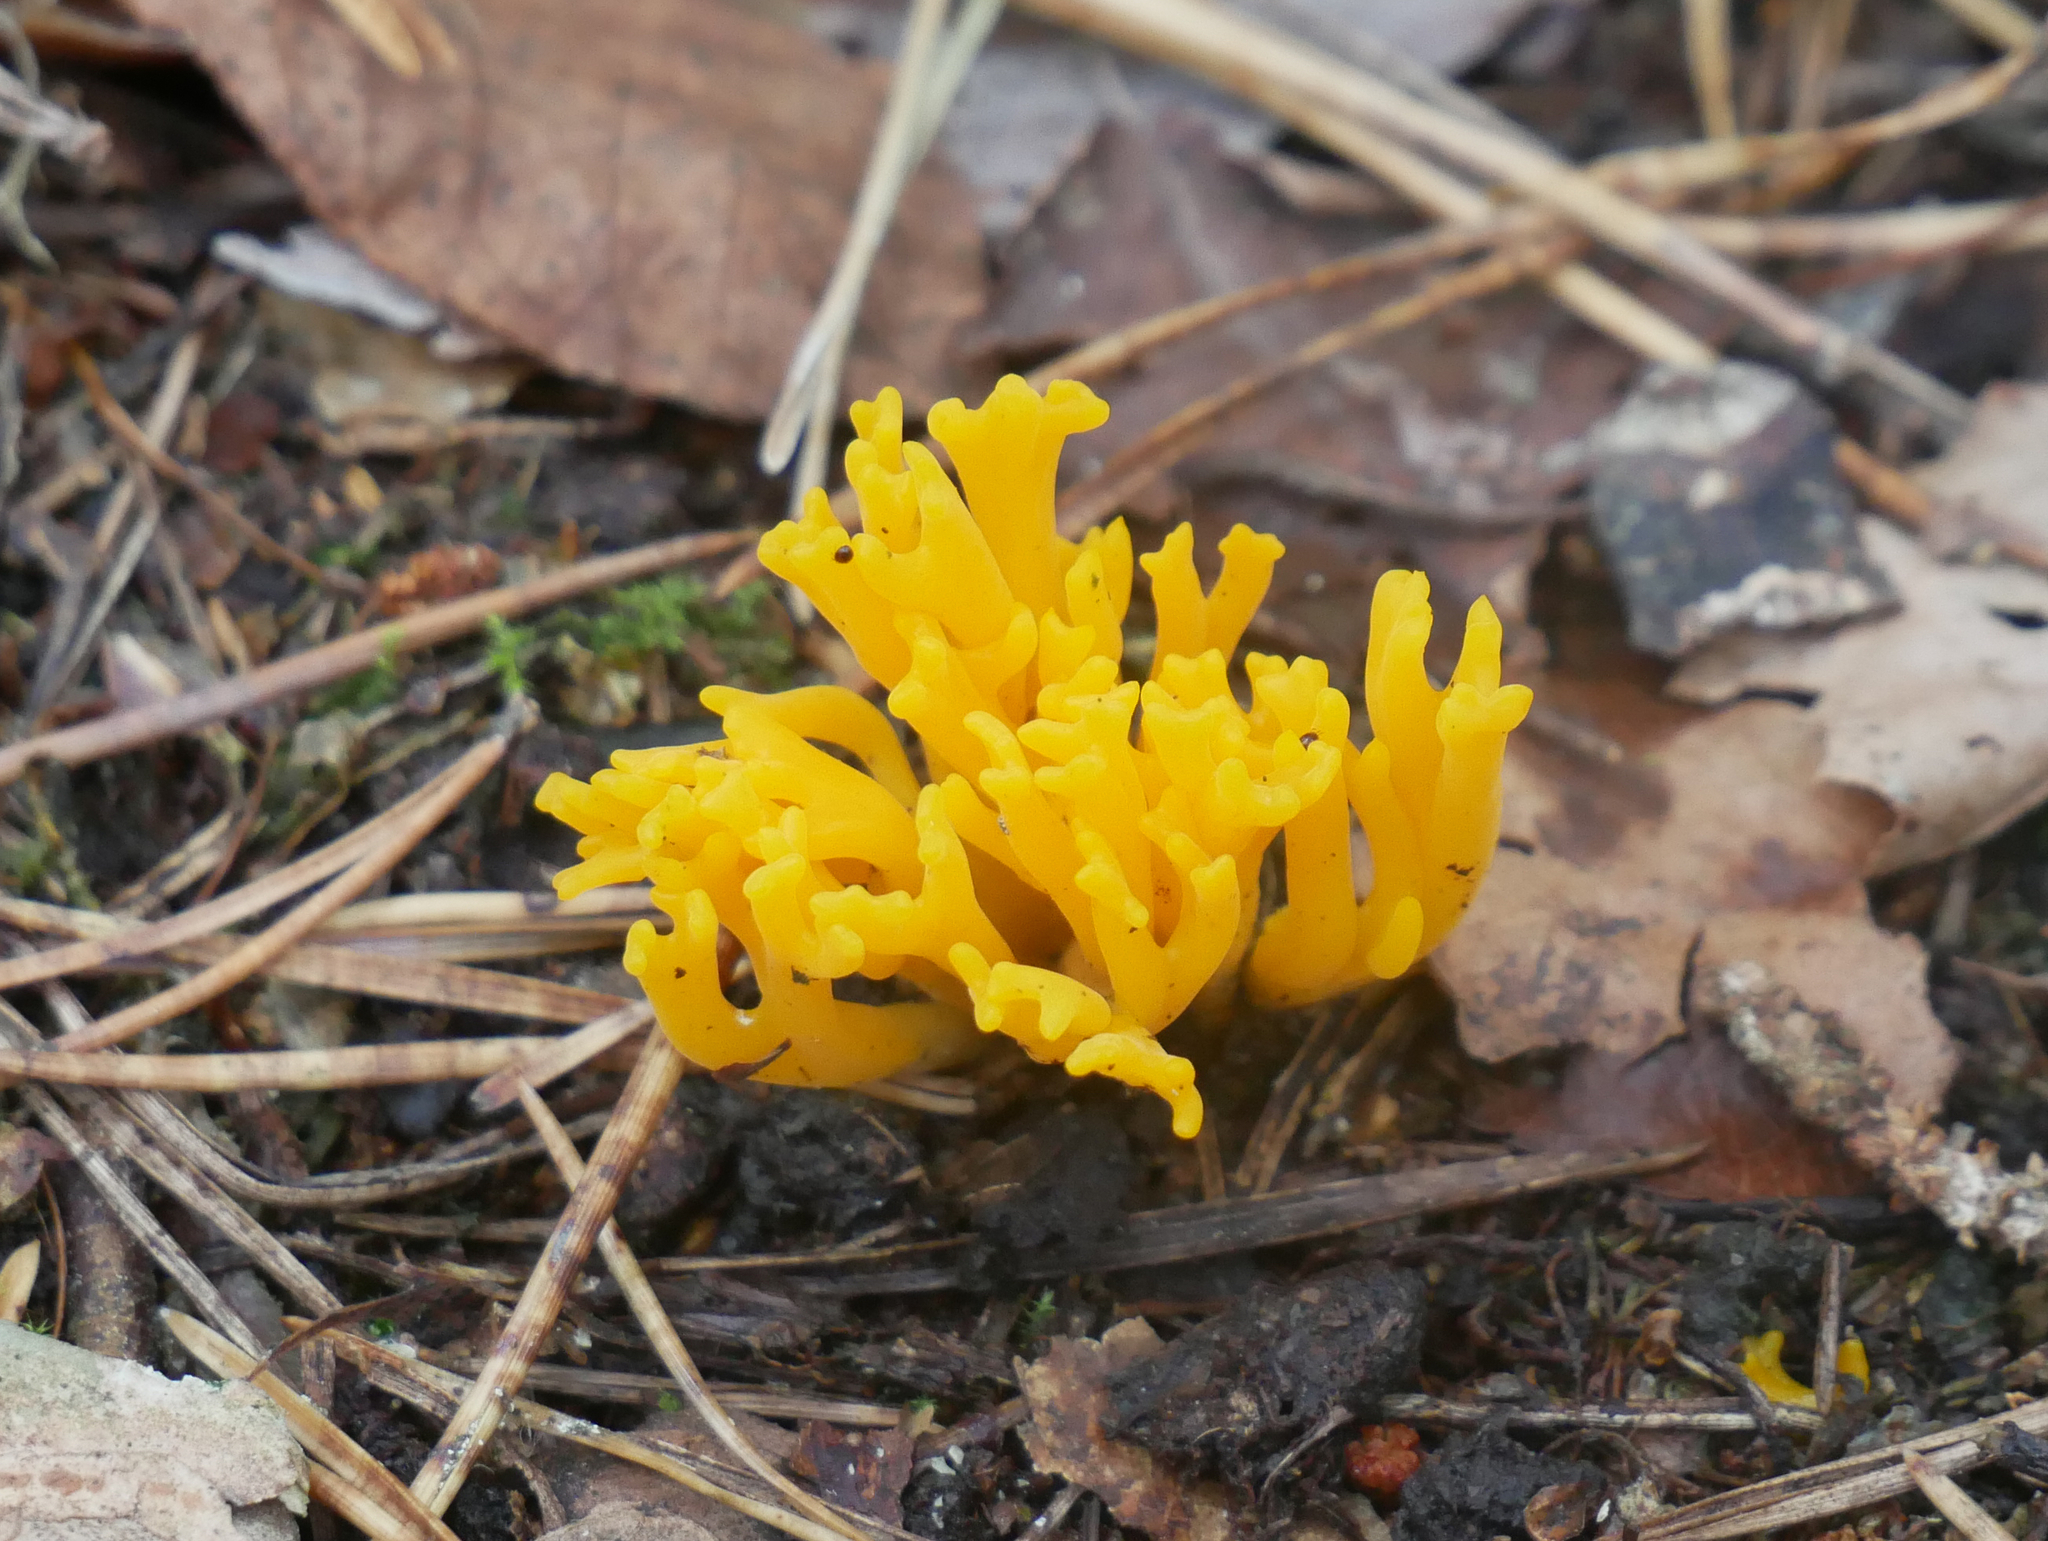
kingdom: Fungi
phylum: Basidiomycota
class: Dacrymycetes
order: Dacrymycetales
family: Dacrymycetaceae
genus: Calocera
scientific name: Calocera viscosa
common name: Yellow stagshorn
